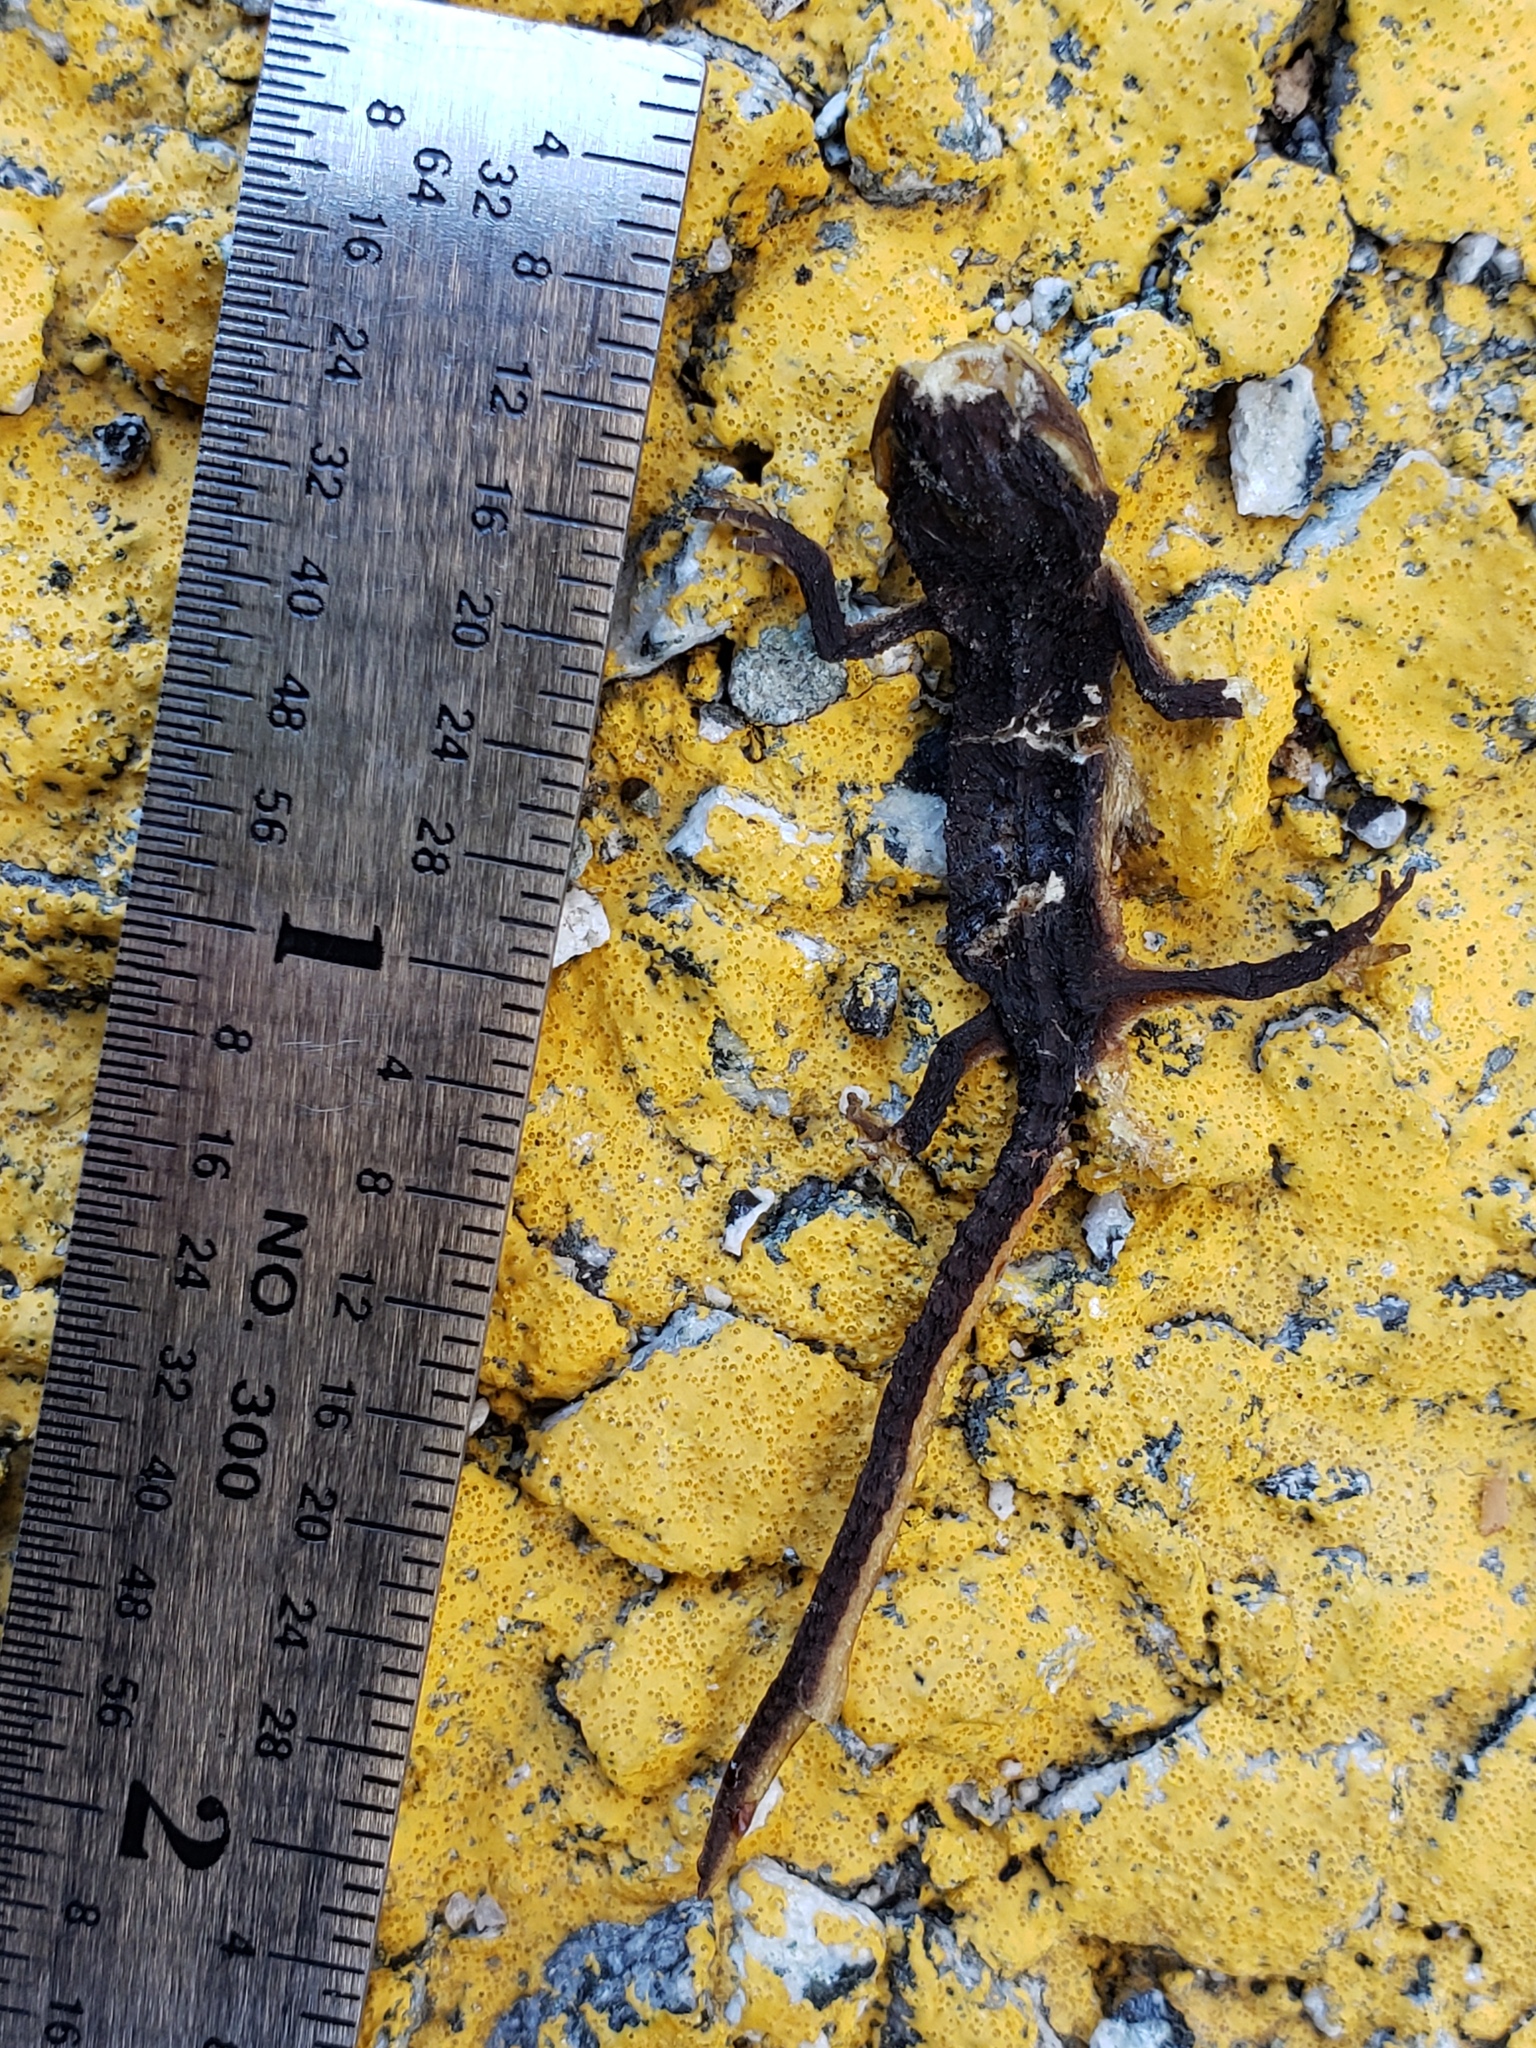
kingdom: Animalia
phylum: Chordata
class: Amphibia
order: Caudata
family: Salamandridae
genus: Taricha
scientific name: Taricha
